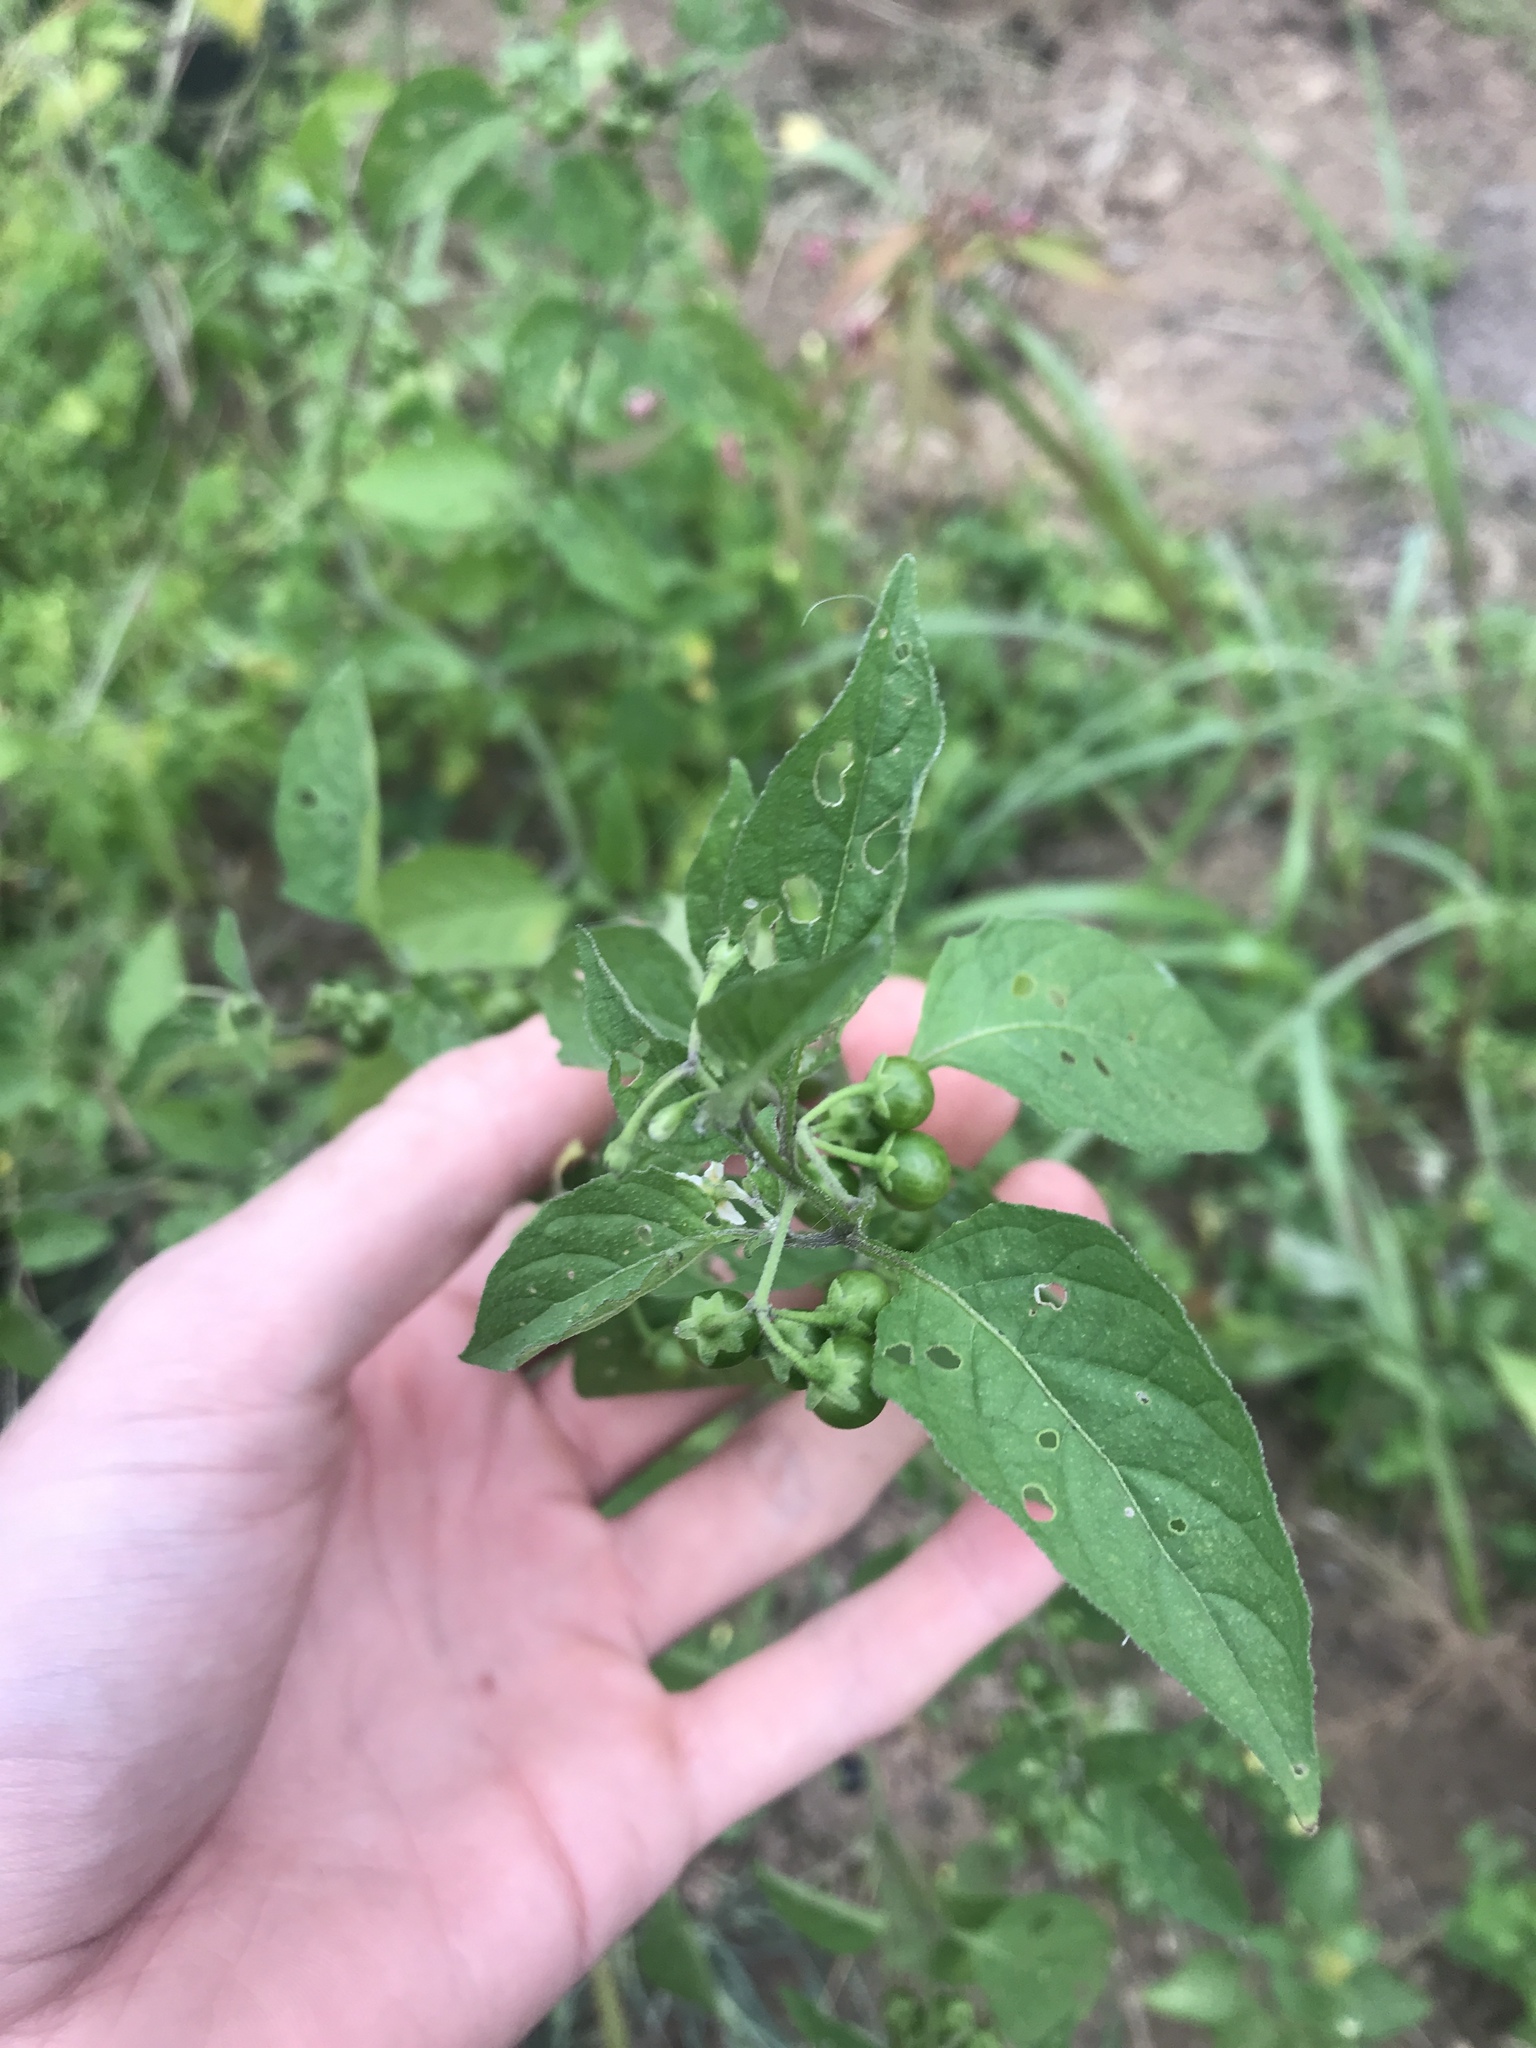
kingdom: Plantae
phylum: Tracheophyta
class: Magnoliopsida
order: Solanales
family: Solanaceae
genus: Solanum
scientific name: Solanum emulans
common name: Eastern black nightshade
